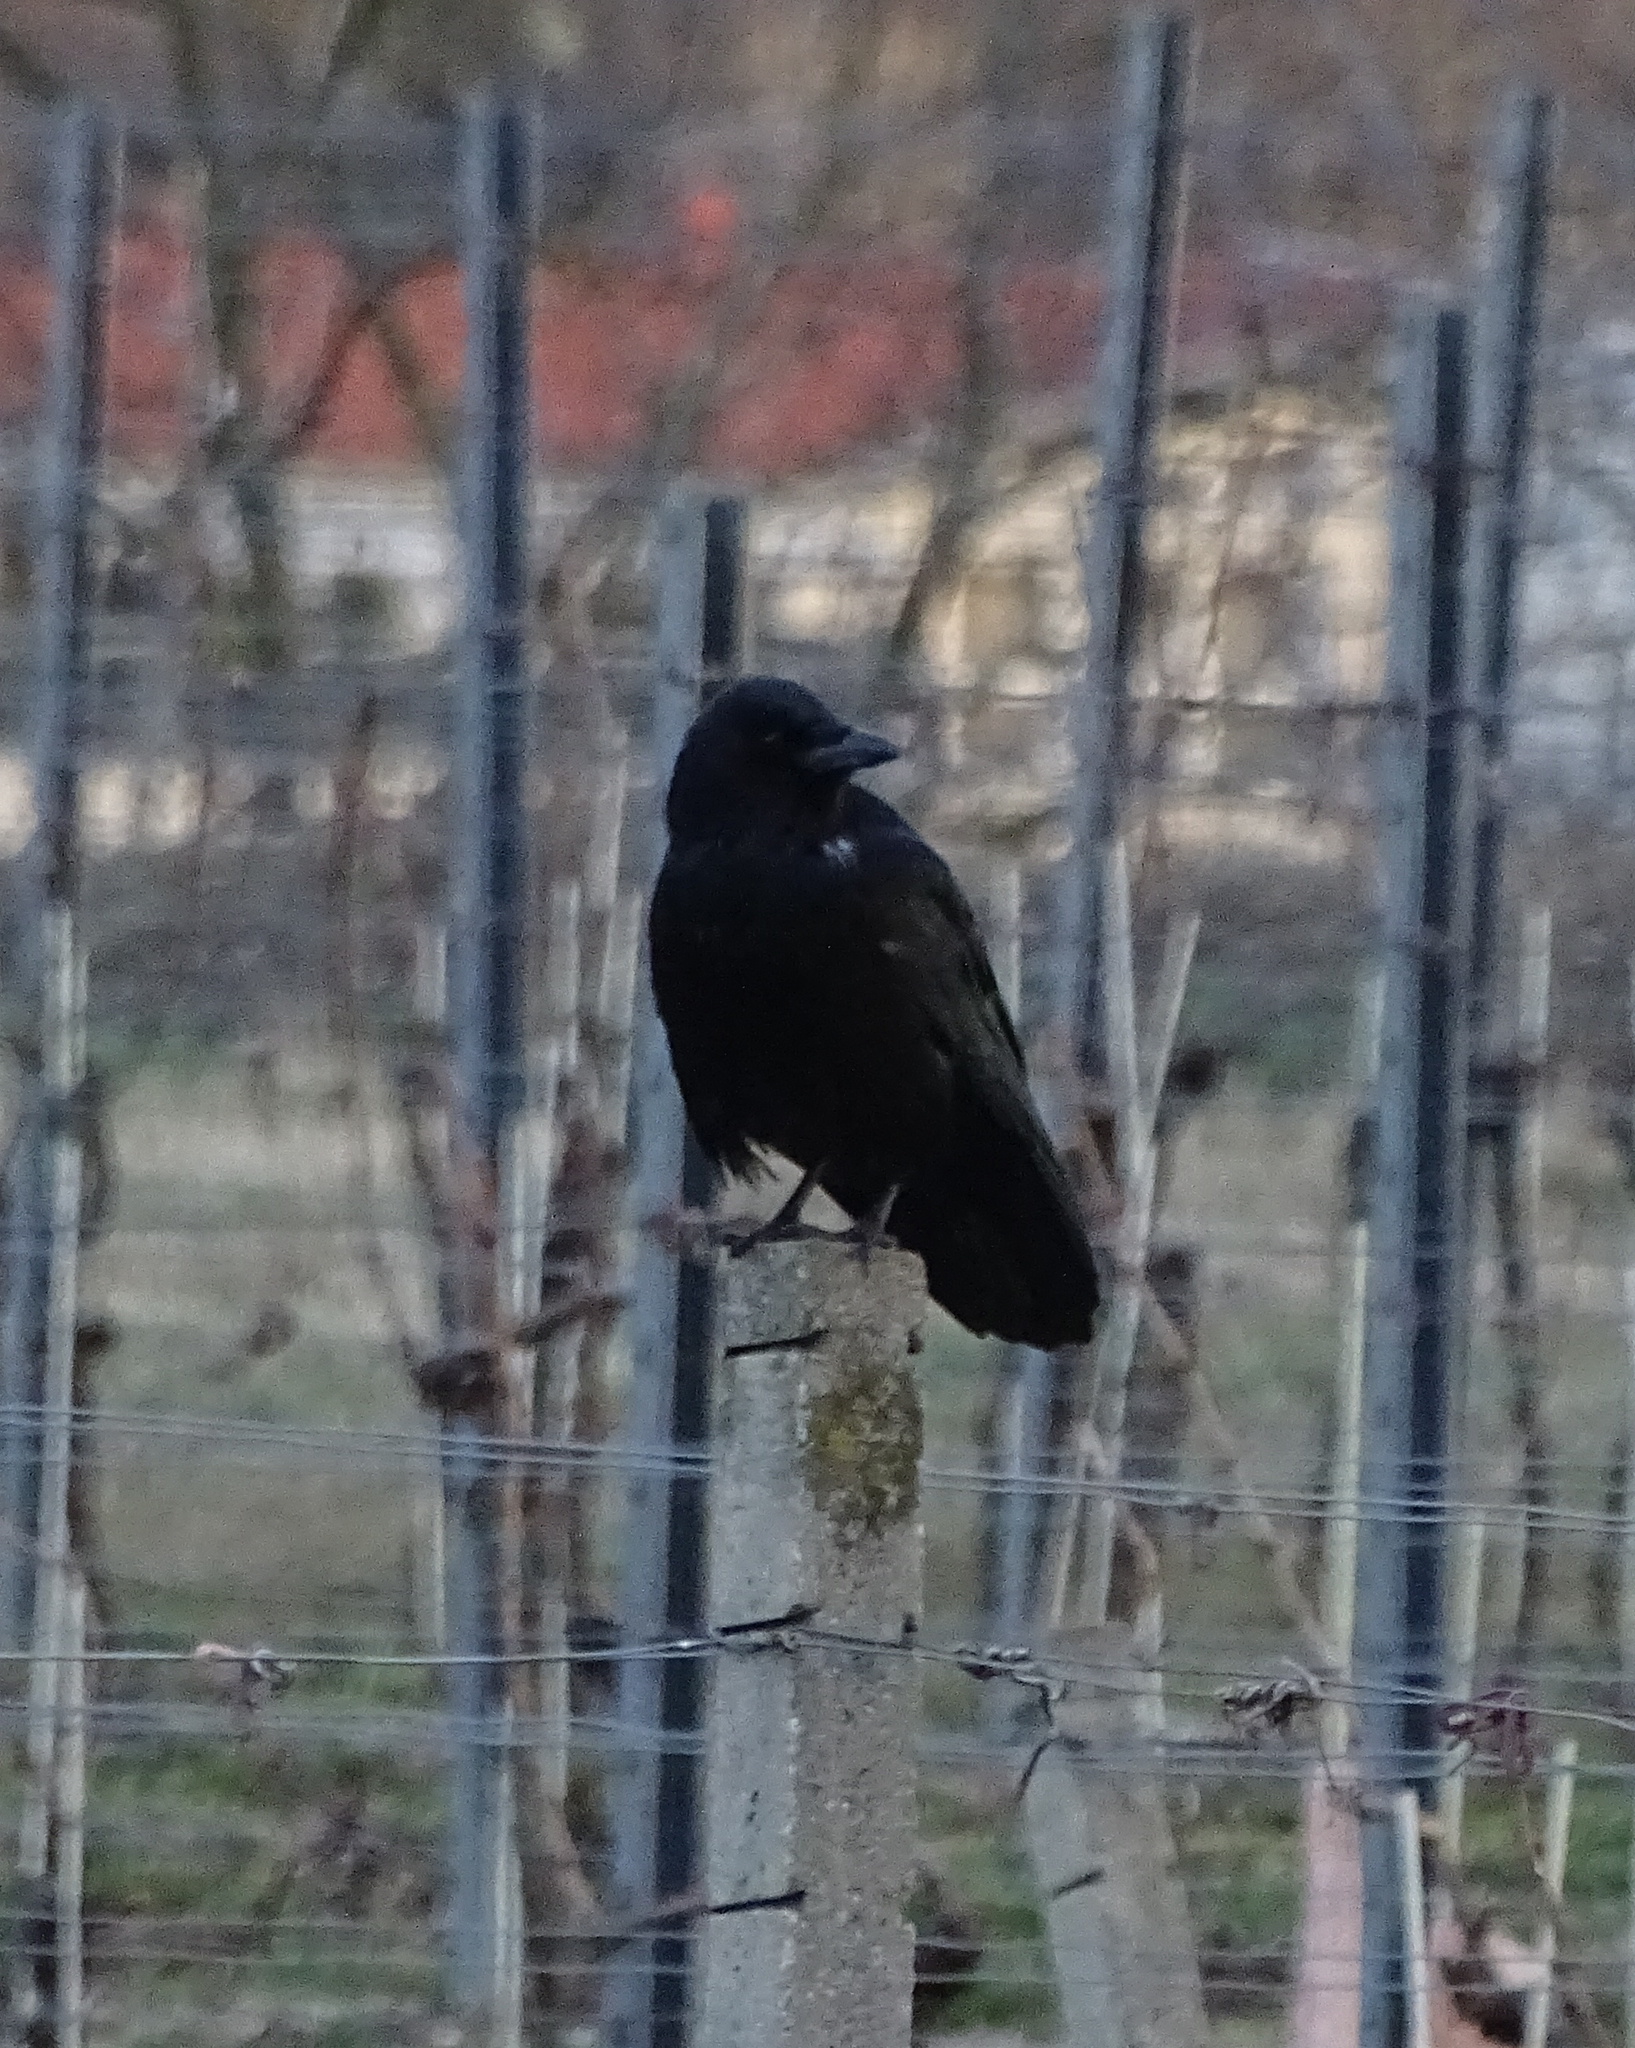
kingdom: Animalia
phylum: Chordata
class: Aves
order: Passeriformes
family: Corvidae
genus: Corvus
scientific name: Corvus corone
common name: Carrion crow
